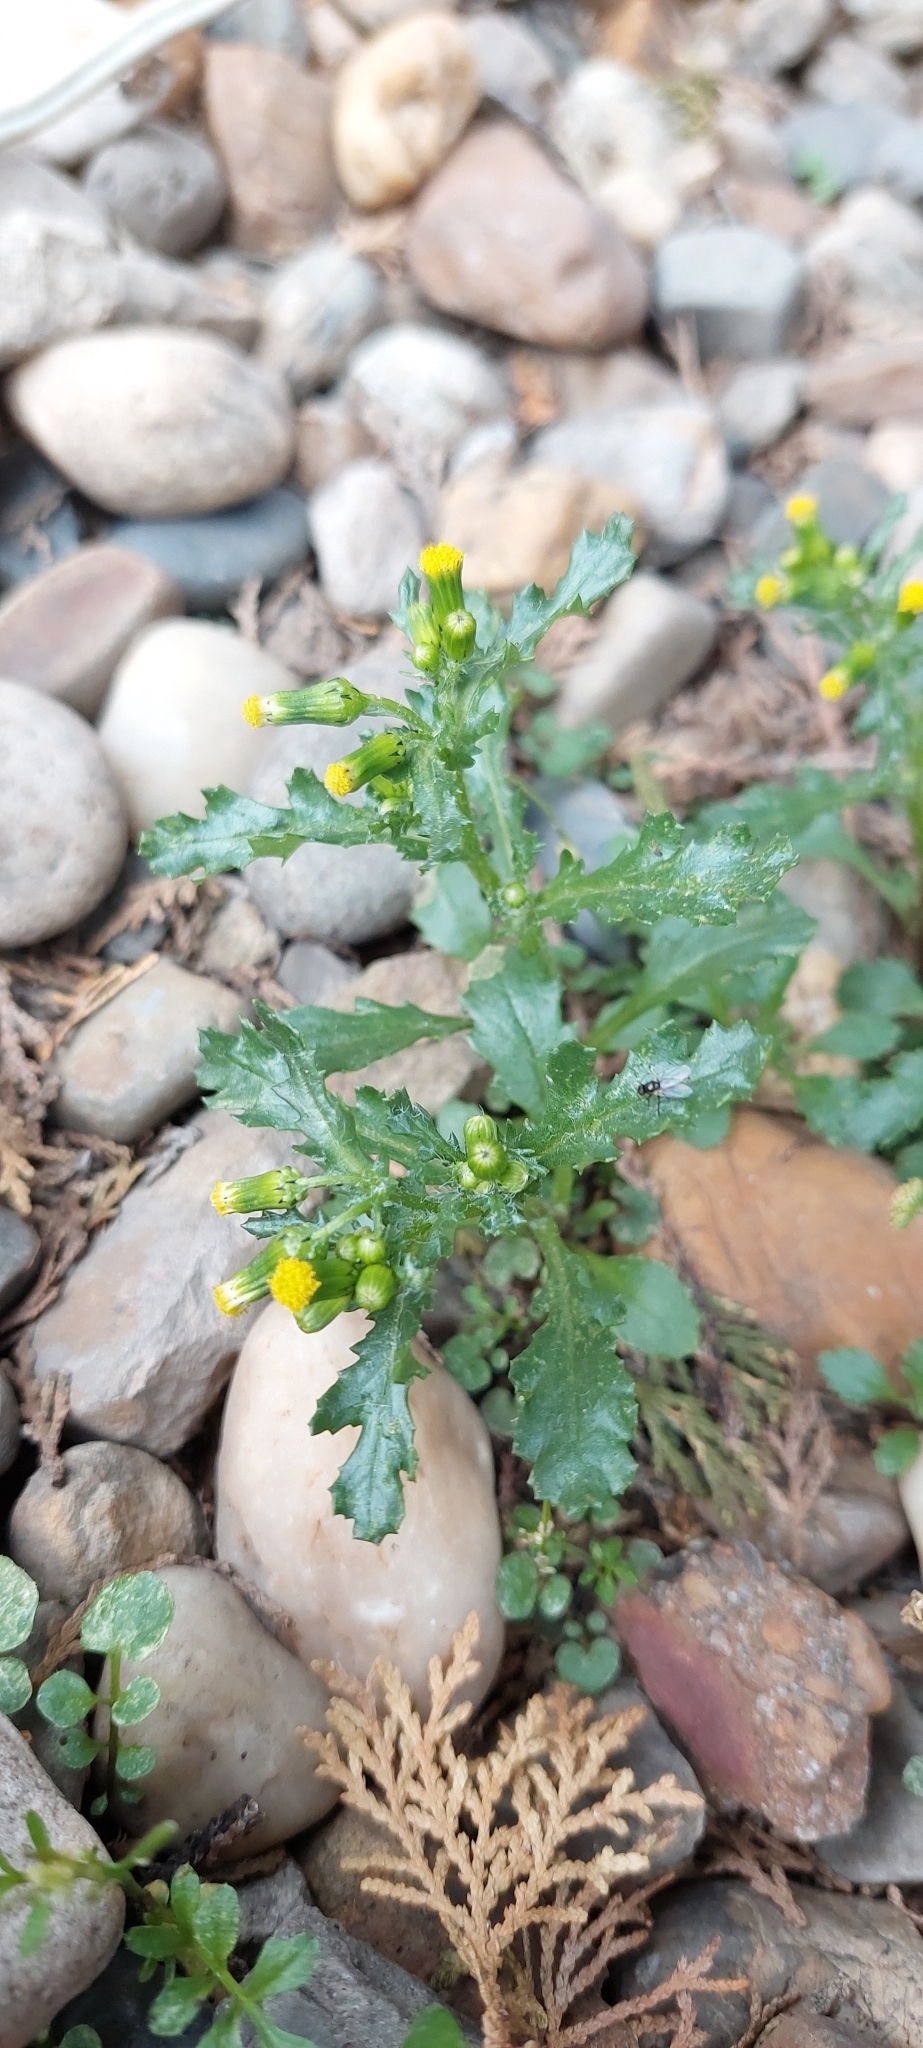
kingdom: Plantae
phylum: Tracheophyta
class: Magnoliopsida
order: Asterales
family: Asteraceae
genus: Senecio
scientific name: Senecio vulgaris
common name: Old-man-in-the-spring
